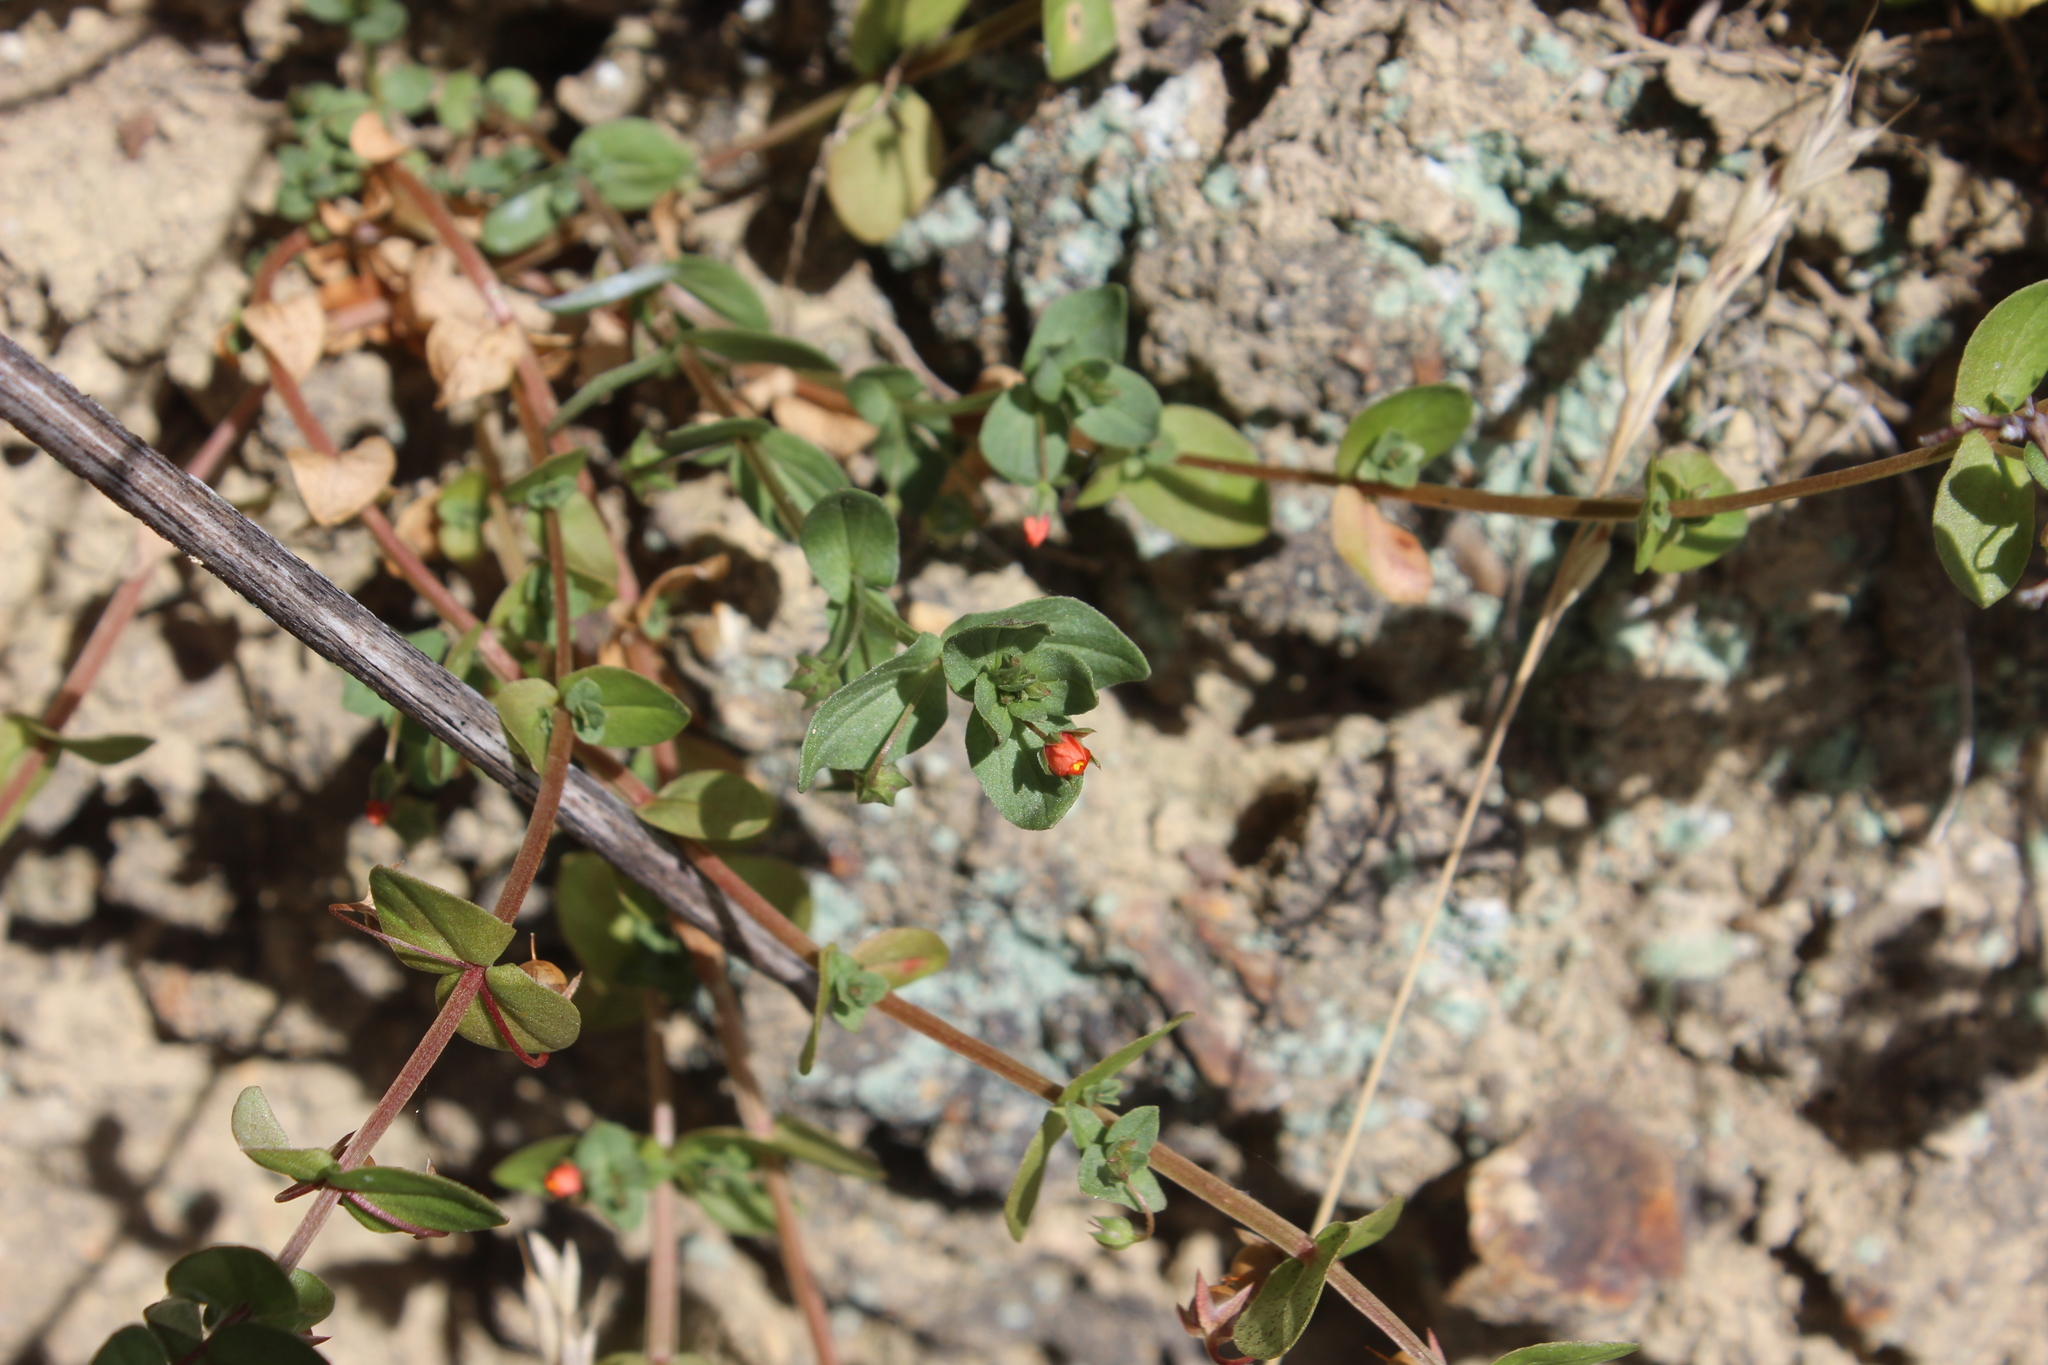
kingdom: Plantae
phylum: Tracheophyta
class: Magnoliopsida
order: Ericales
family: Primulaceae
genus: Lysimachia
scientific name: Lysimachia arvensis
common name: Scarlet pimpernel
